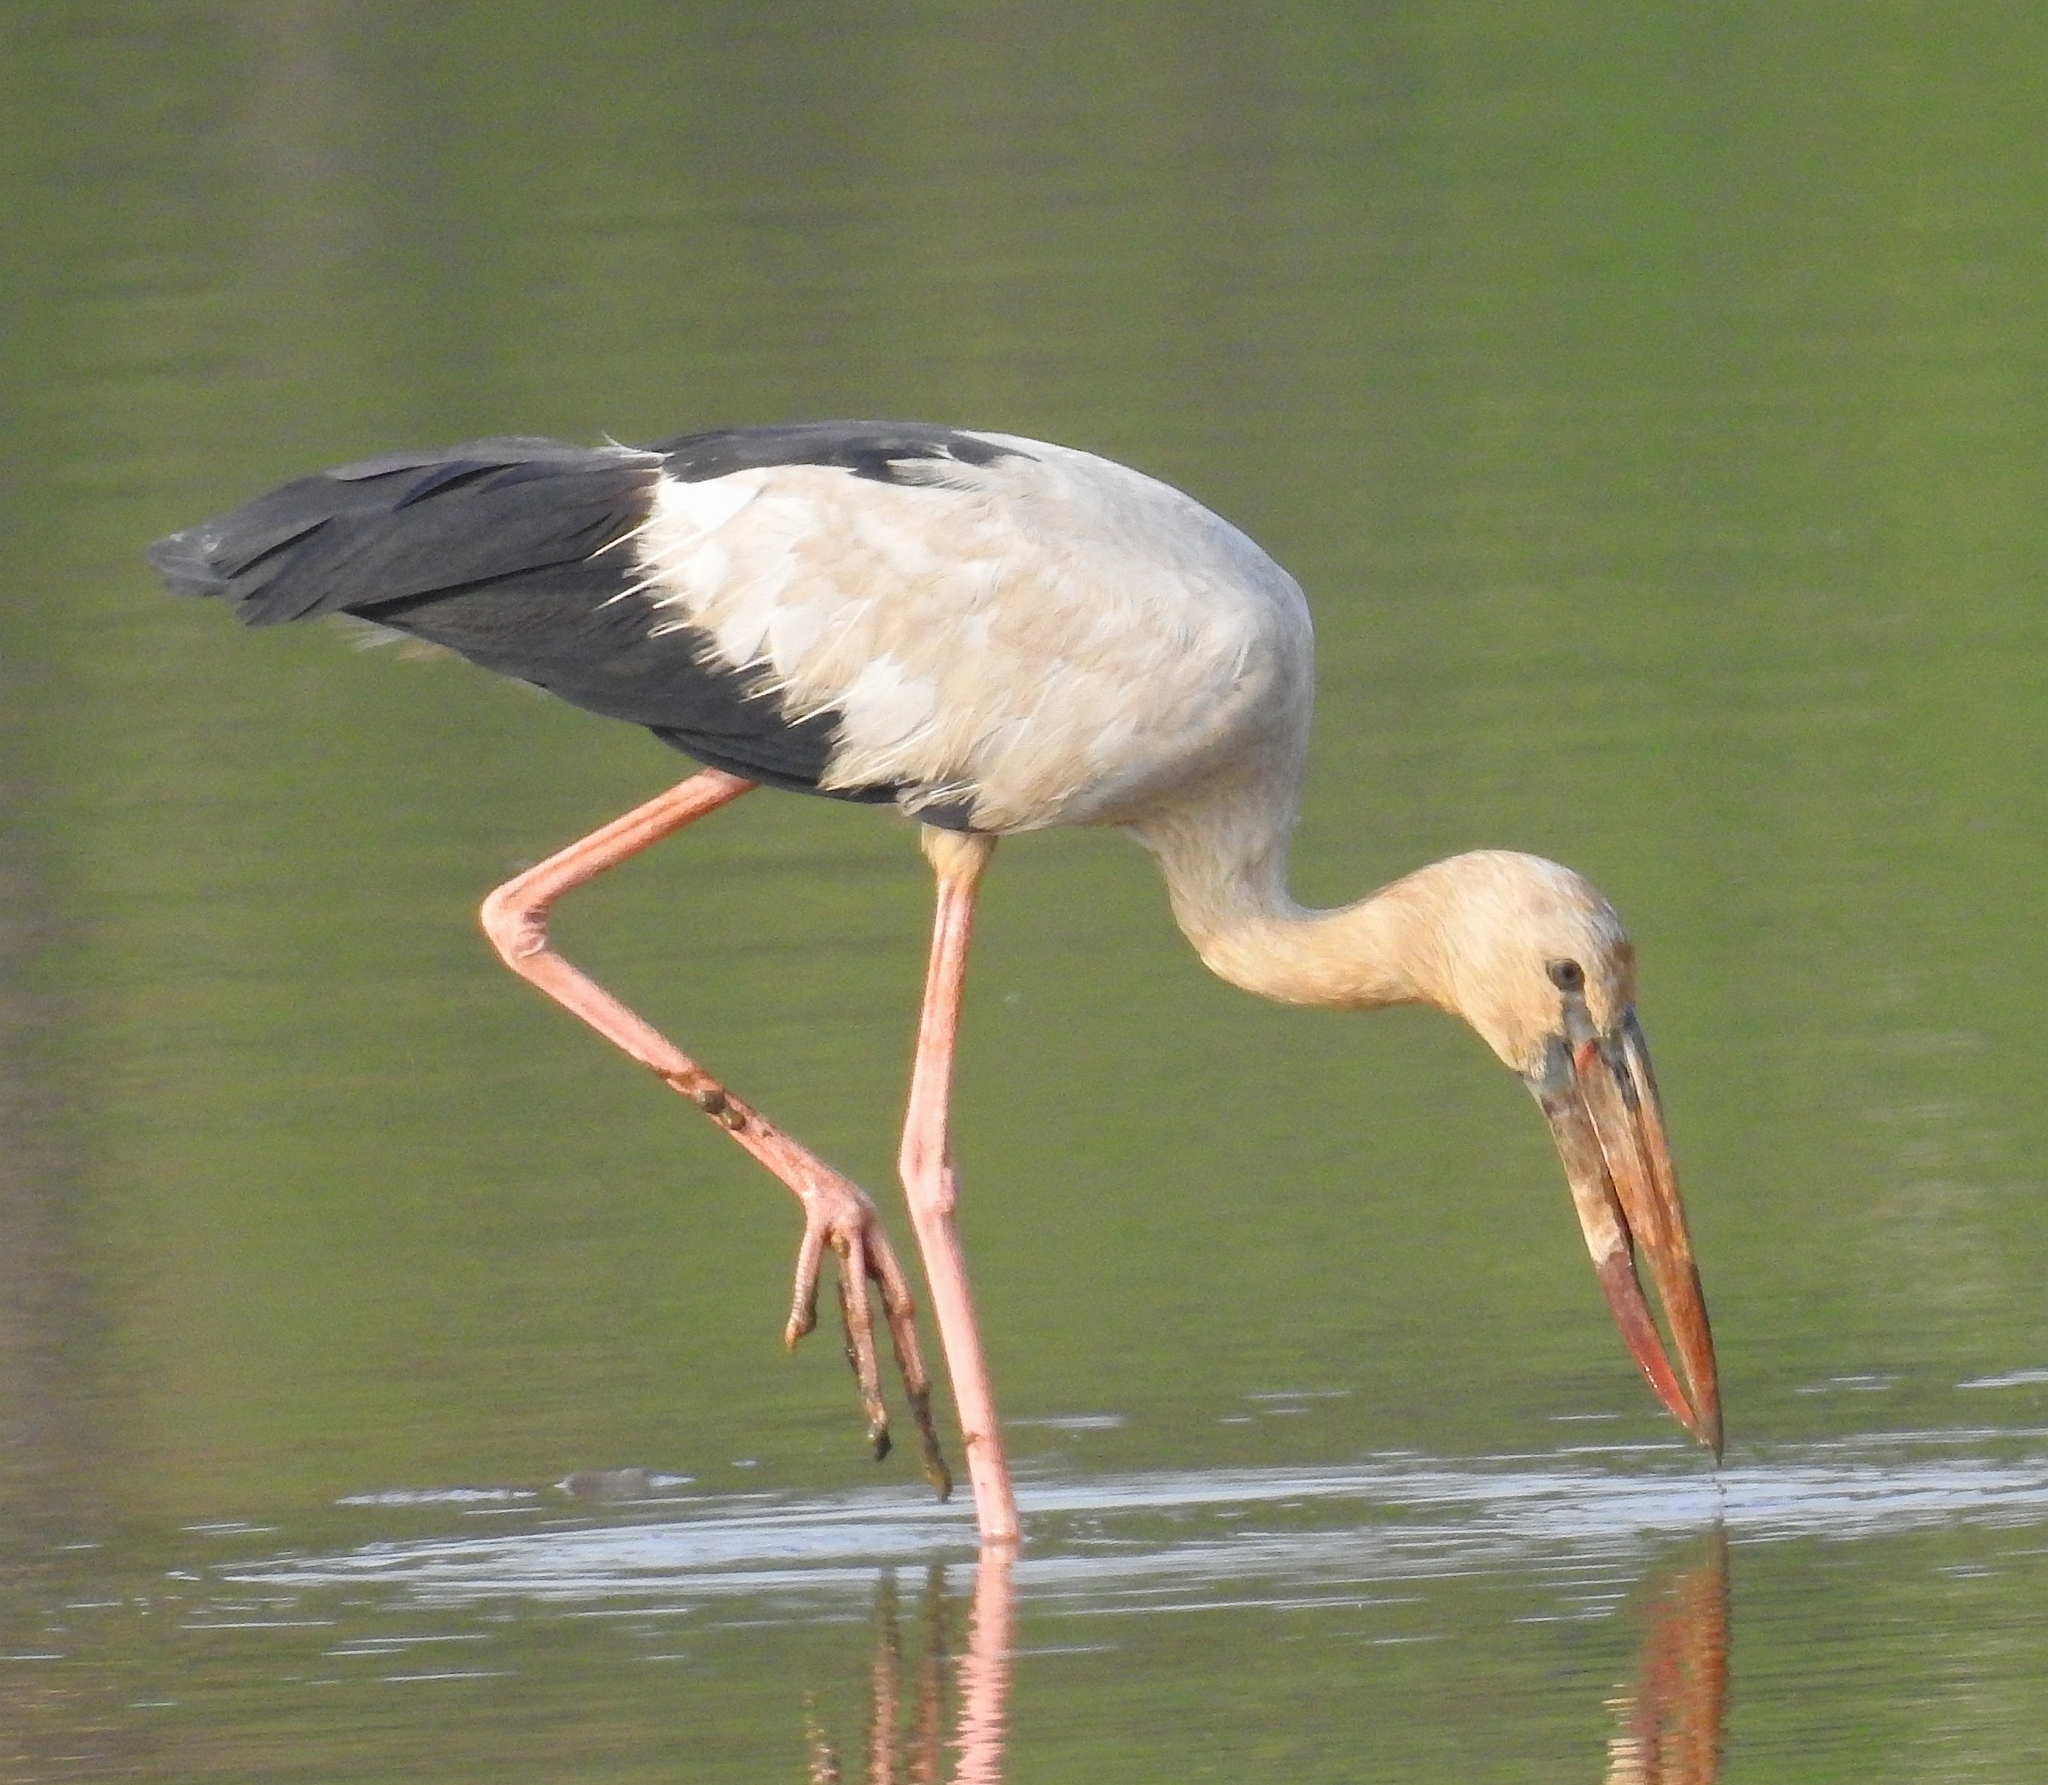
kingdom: Animalia
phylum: Chordata
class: Aves
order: Ciconiiformes
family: Ciconiidae
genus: Anastomus
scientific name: Anastomus oscitans
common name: Asian openbill
